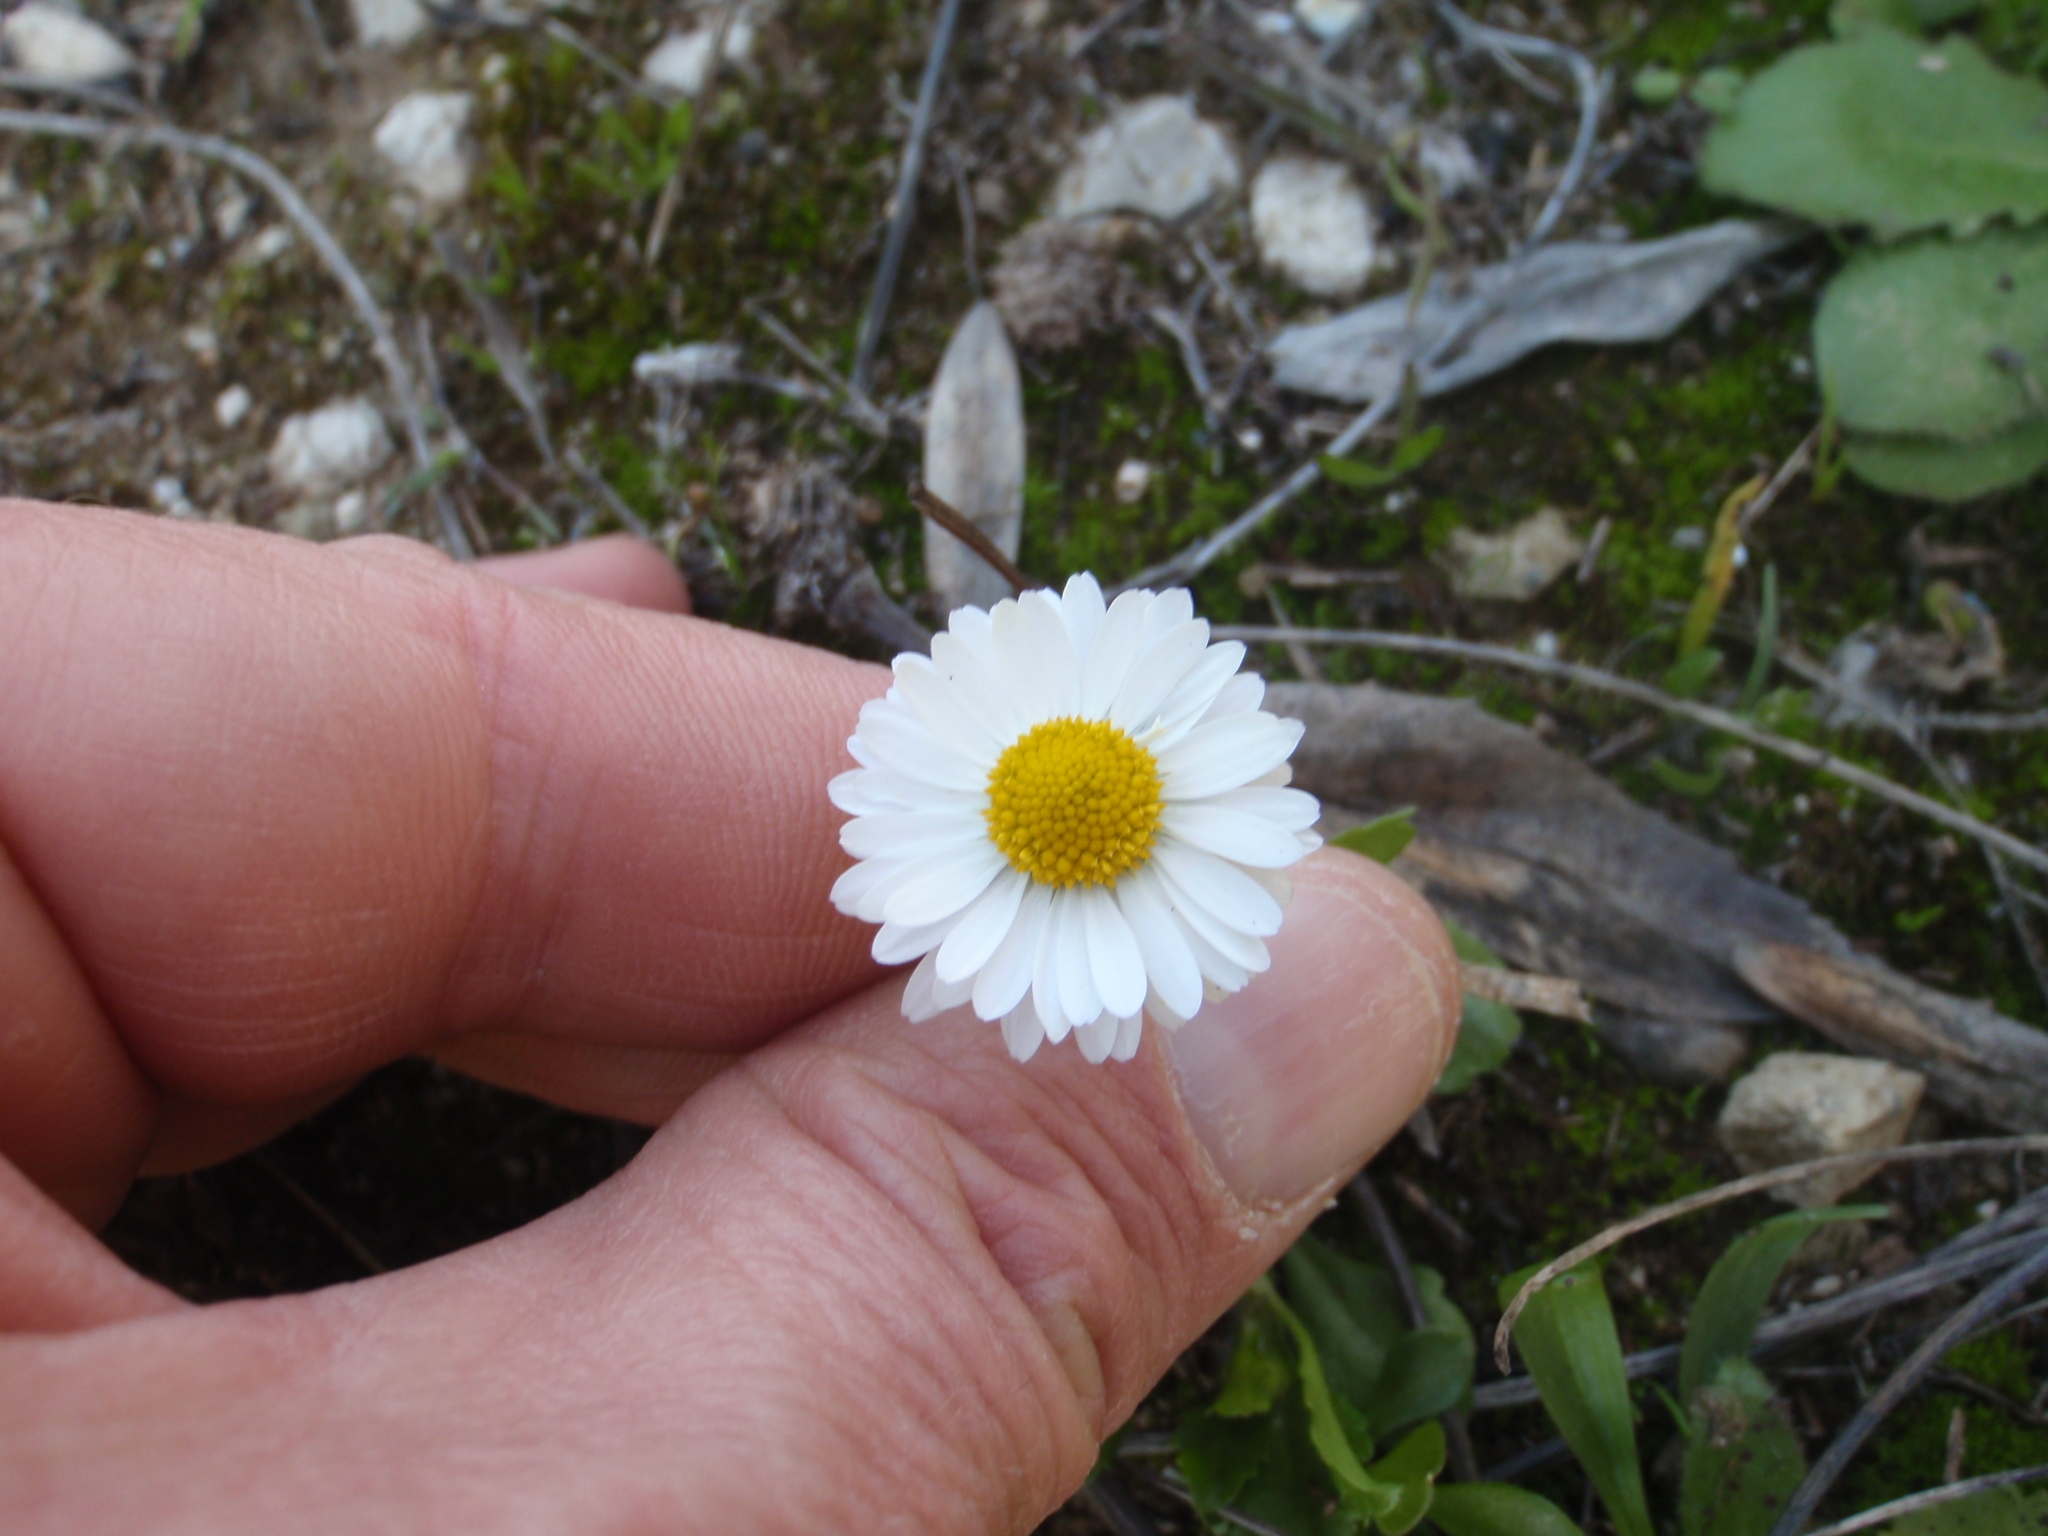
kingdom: Plantae
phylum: Tracheophyta
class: Magnoliopsida
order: Asterales
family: Asteraceae
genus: Bellis
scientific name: Bellis annua
